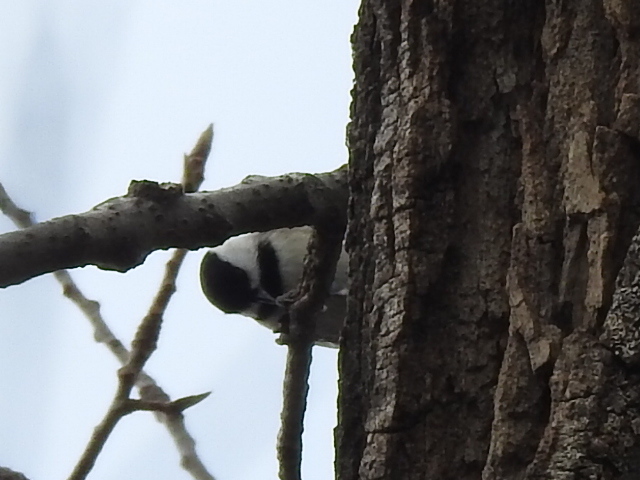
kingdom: Animalia
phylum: Chordata
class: Aves
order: Passeriformes
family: Paridae
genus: Poecile
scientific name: Poecile carolinensis
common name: Carolina chickadee
